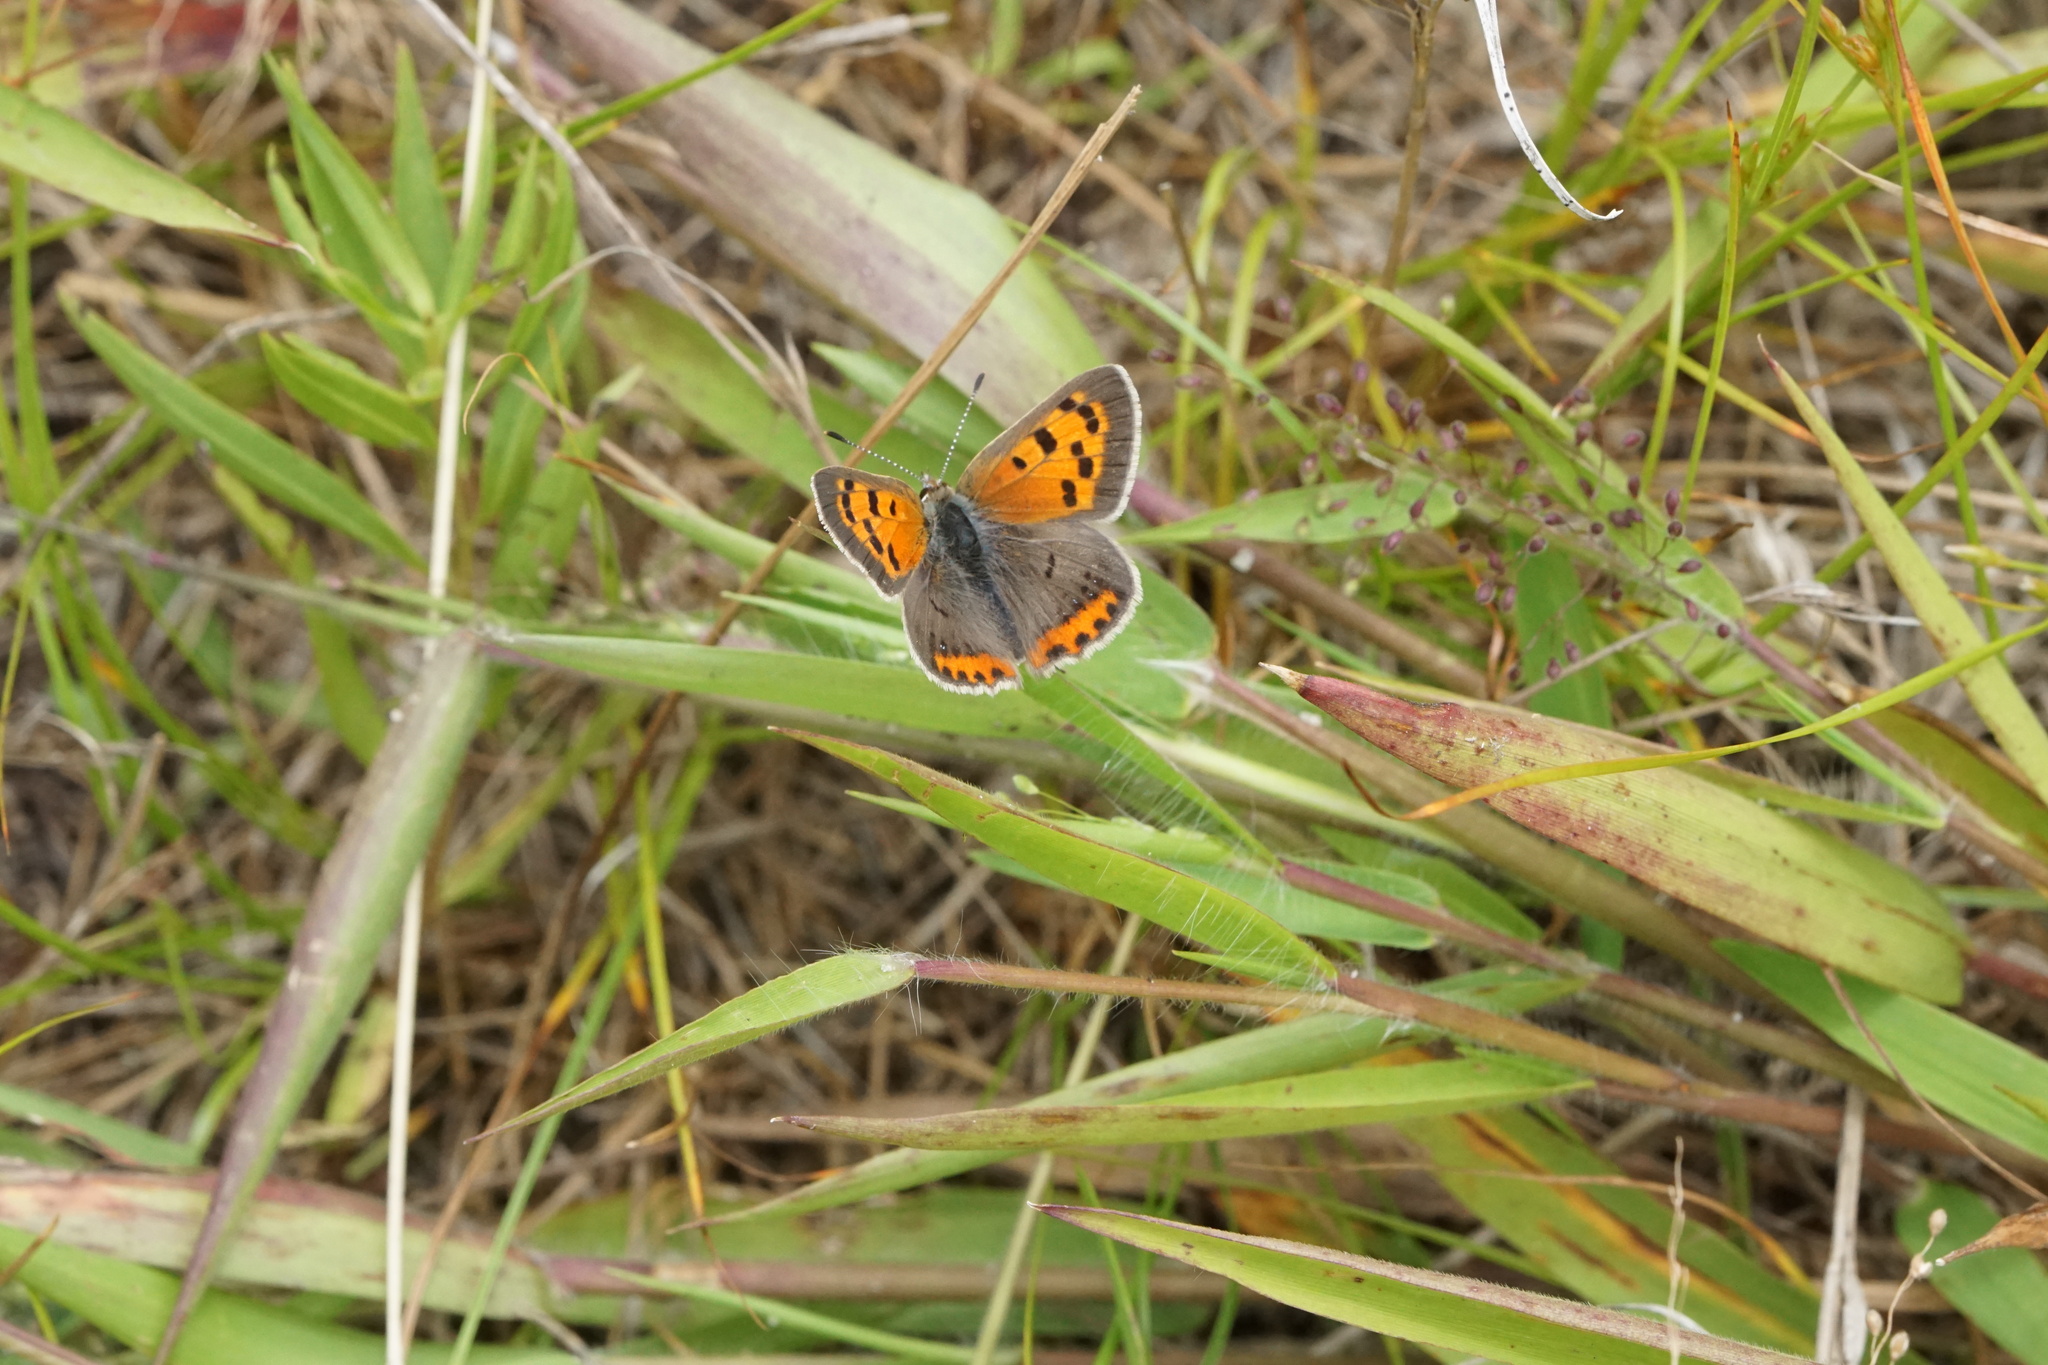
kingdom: Animalia
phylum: Arthropoda
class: Insecta
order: Lepidoptera
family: Lycaenidae
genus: Lycaena
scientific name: Lycaena hypophlaeas
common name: American copper
